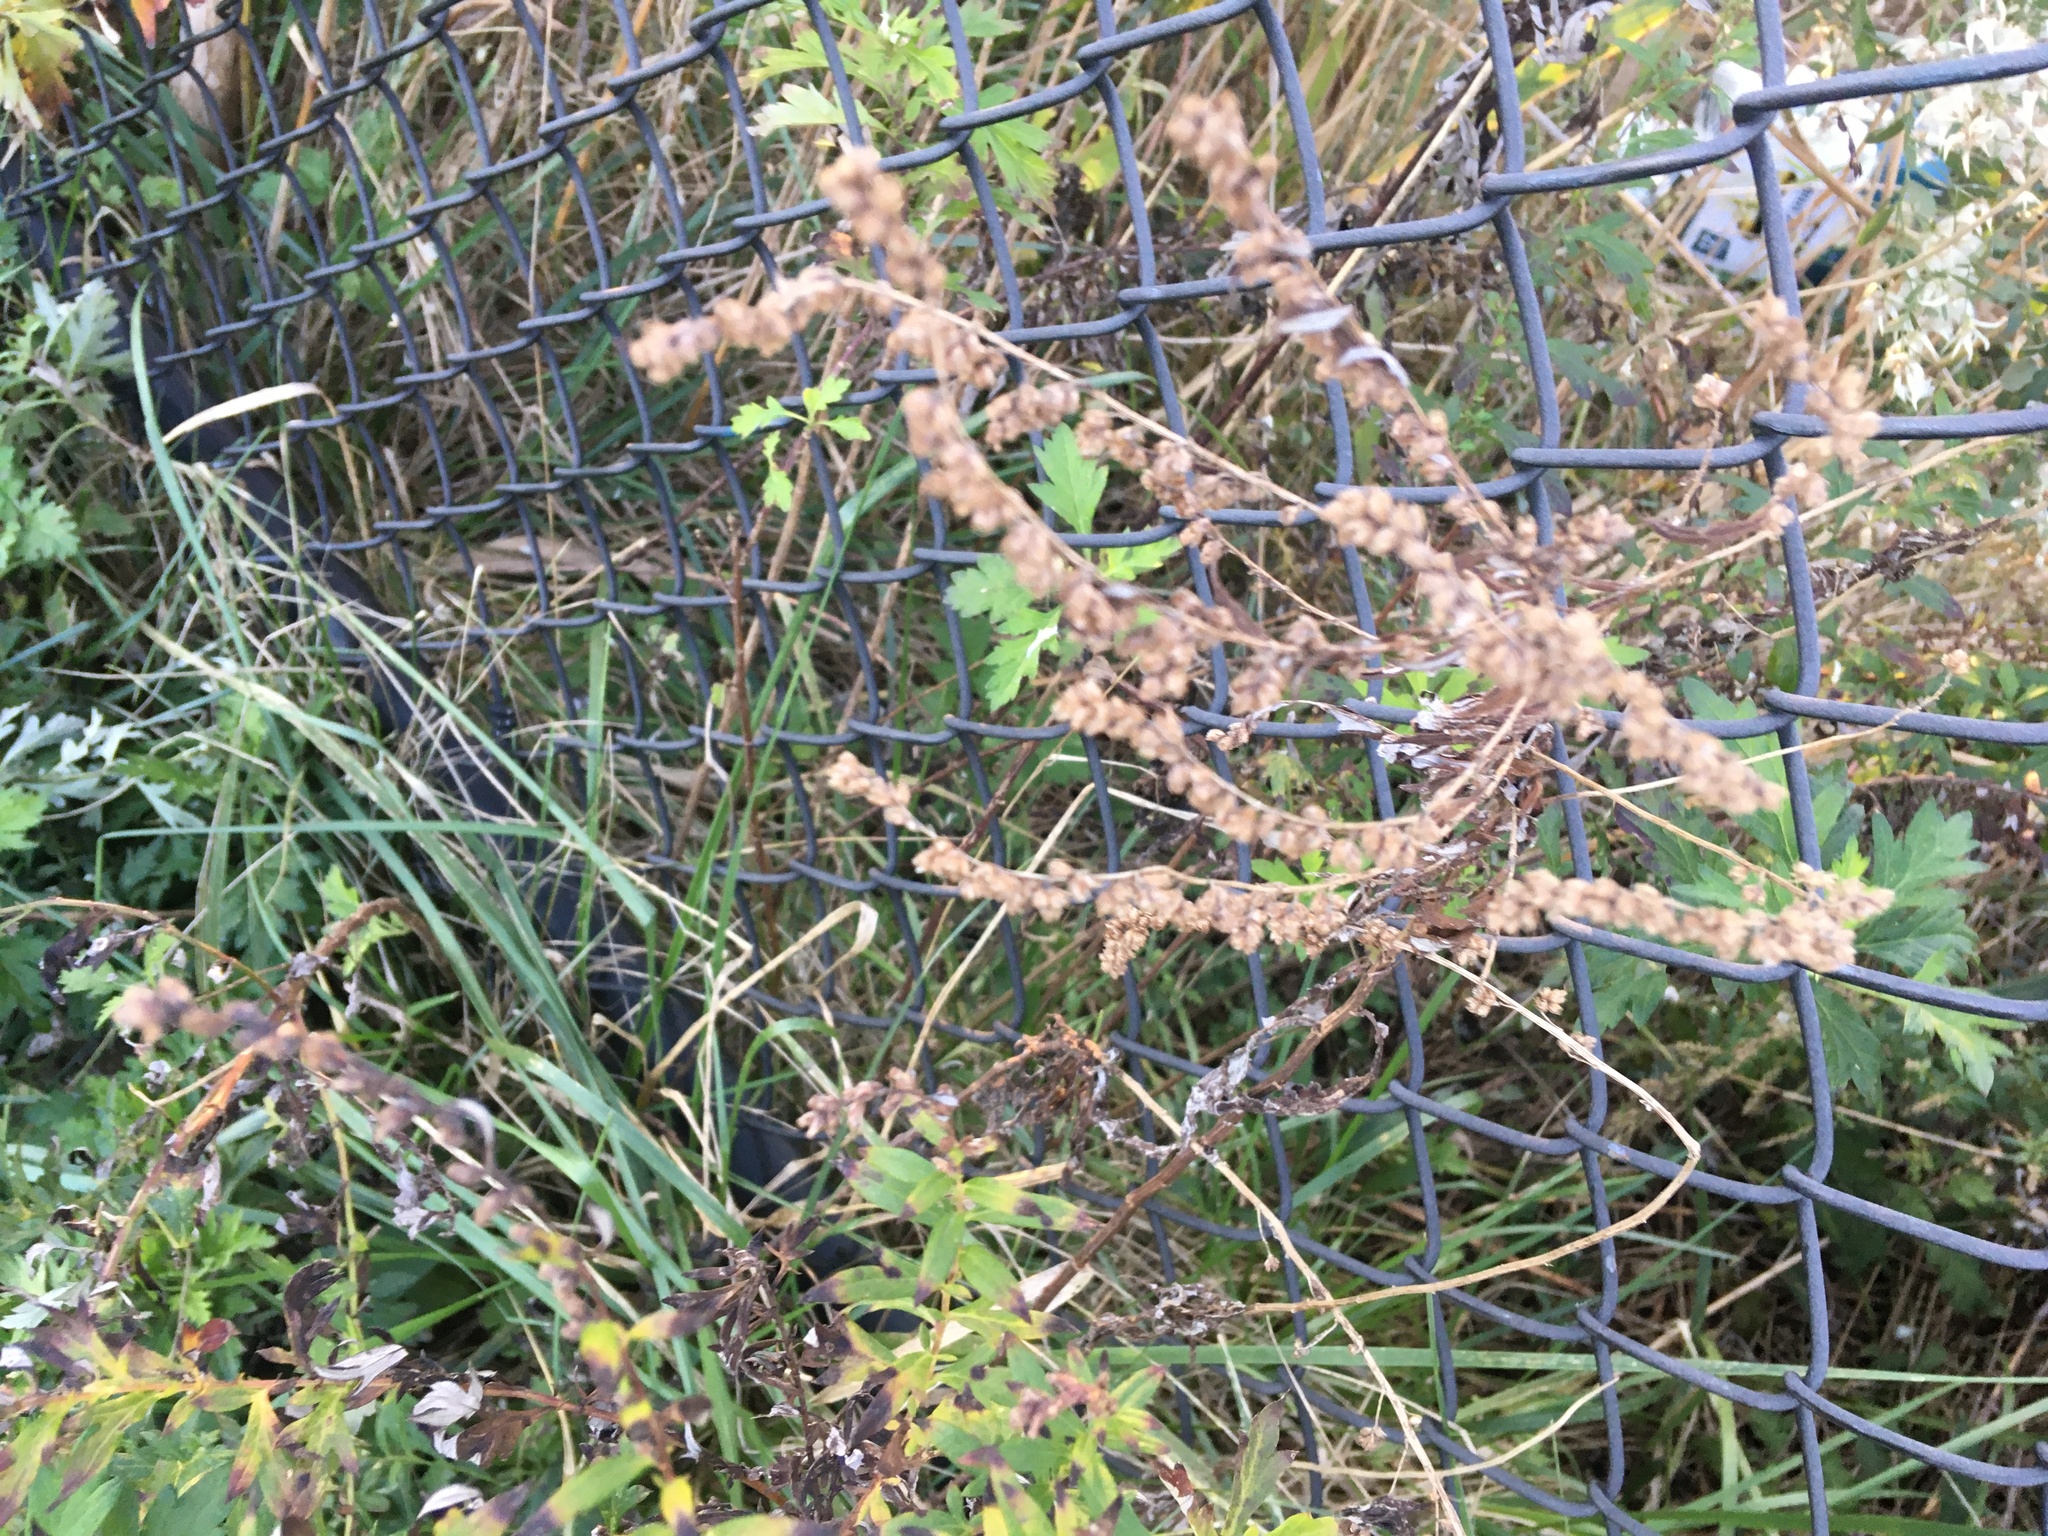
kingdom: Plantae
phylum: Tracheophyta
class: Magnoliopsida
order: Asterales
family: Asteraceae
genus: Artemisia
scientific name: Artemisia vulgaris
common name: Mugwort
